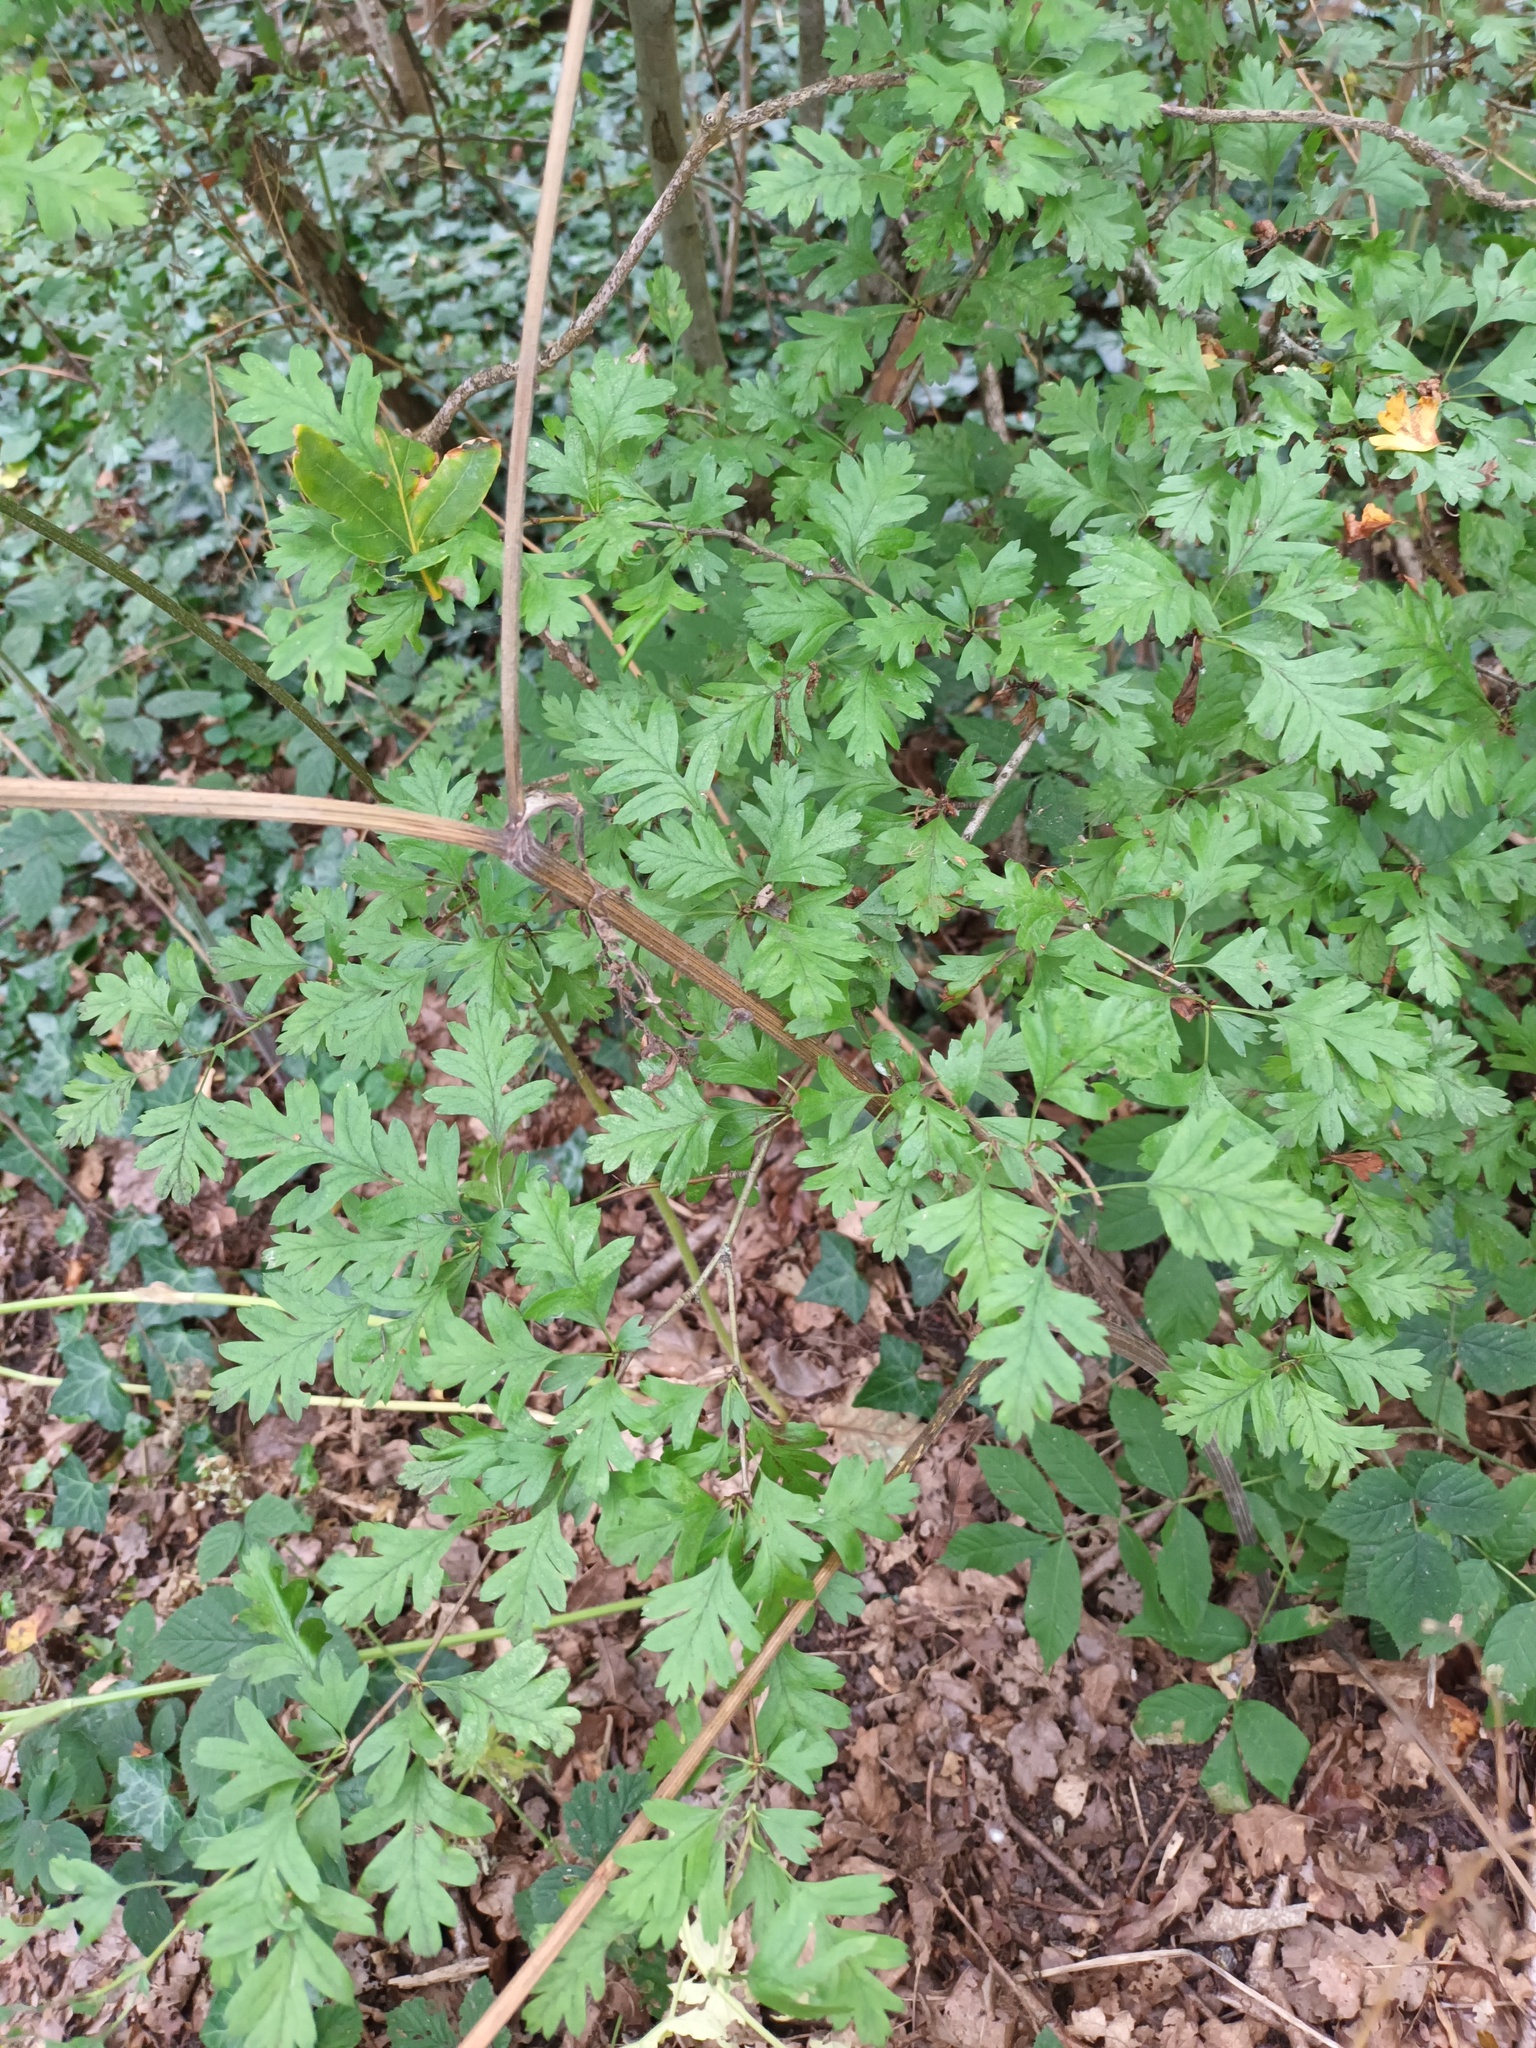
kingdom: Plantae
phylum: Tracheophyta
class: Magnoliopsida
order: Rosales
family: Rosaceae
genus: Crataegus
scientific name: Crataegus monogyna
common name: Hawthorn
